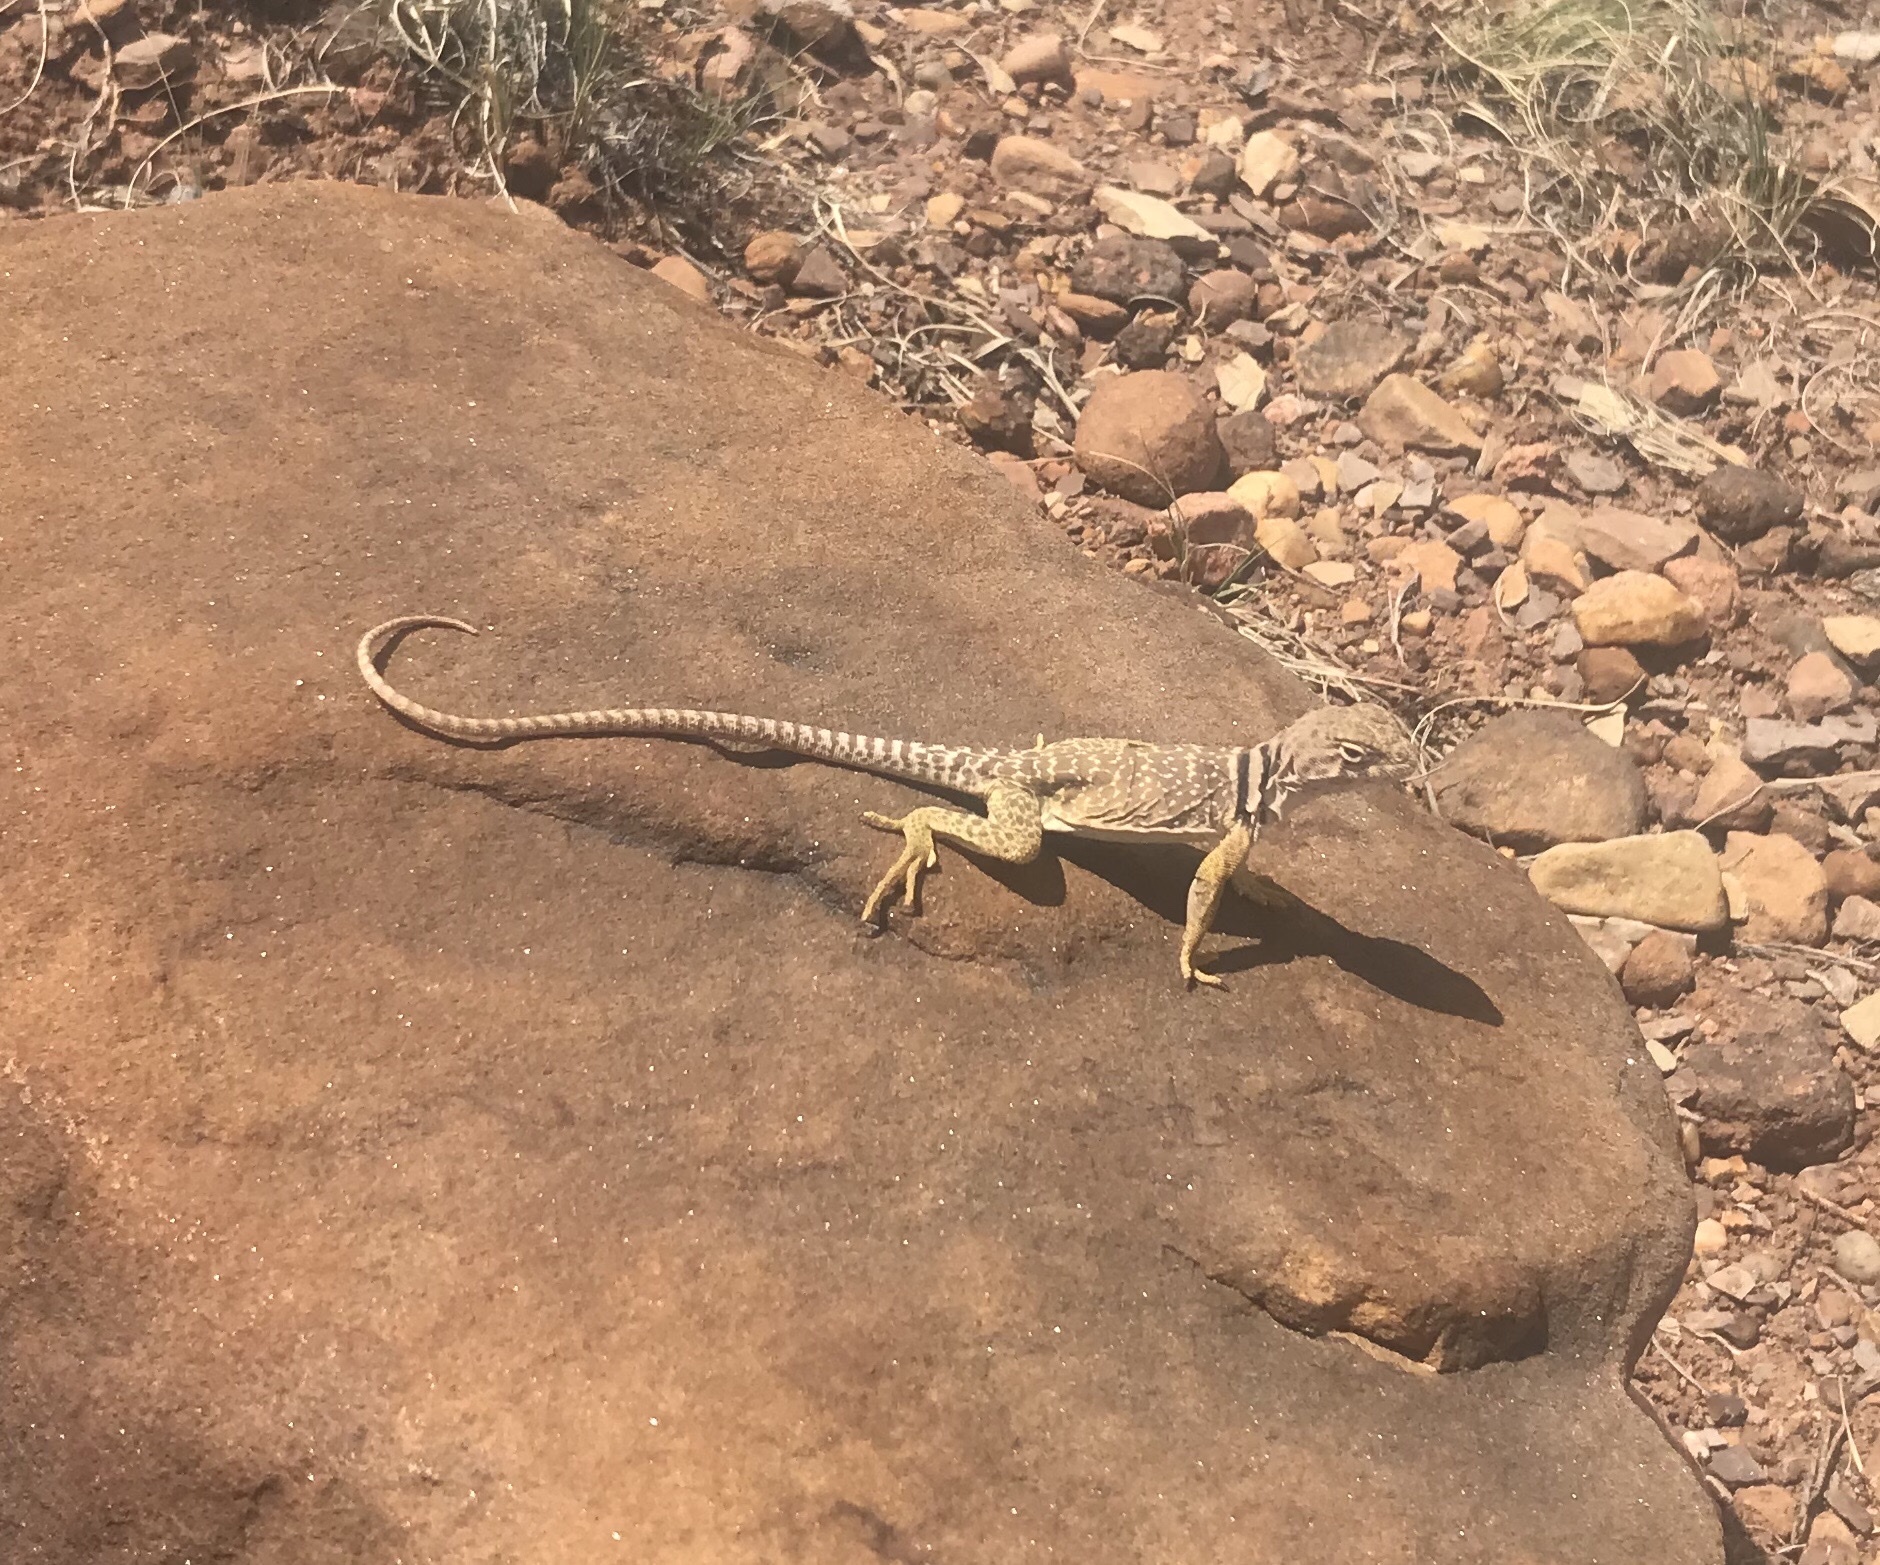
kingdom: Animalia
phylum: Chordata
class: Squamata
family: Crotaphytidae
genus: Crotaphytus
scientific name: Crotaphytus collaris
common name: Collared lizard
